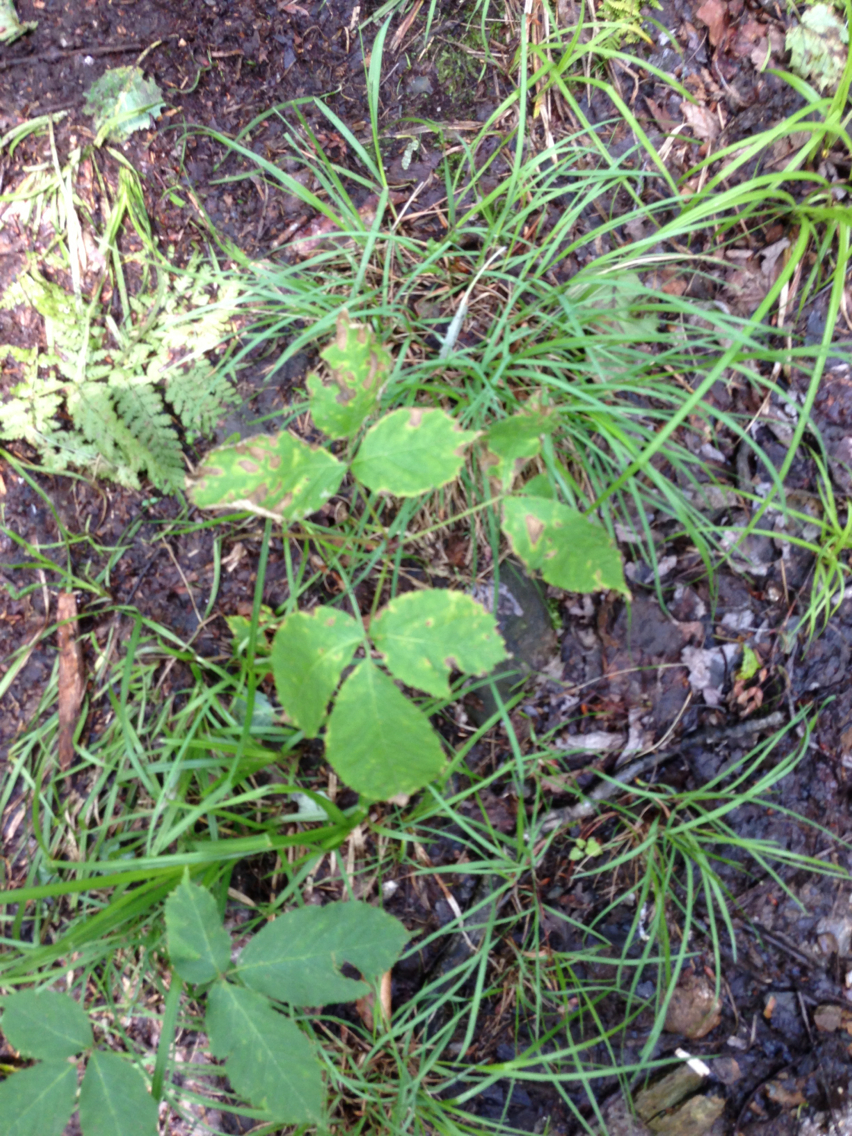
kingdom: Plantae
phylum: Tracheophyta
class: Magnoliopsida
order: Apiales
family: Araliaceae
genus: Aralia
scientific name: Aralia nudicaulis
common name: Wild sarsaparilla
